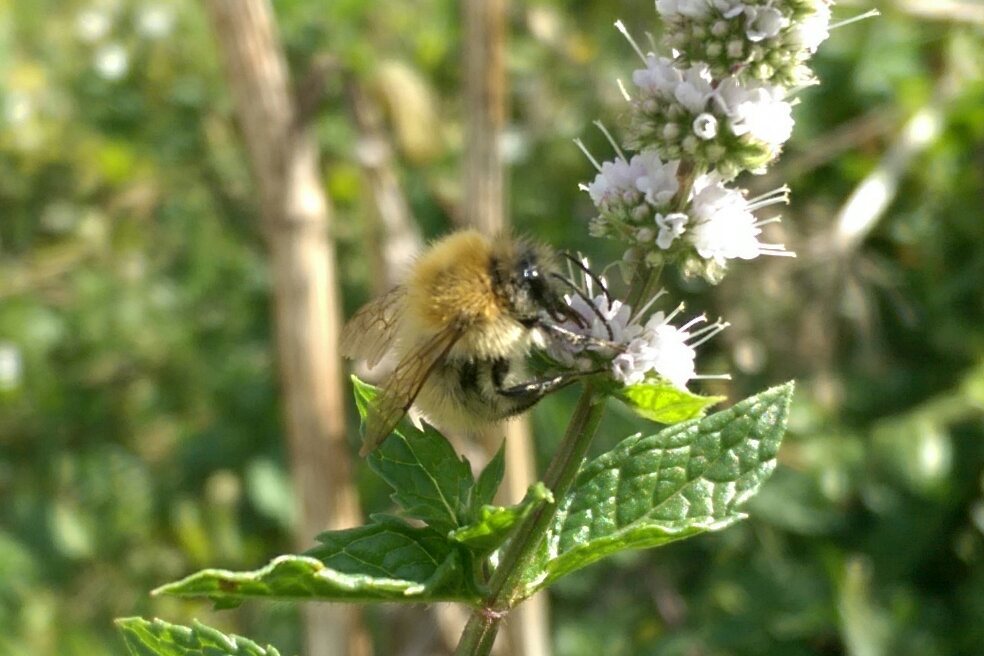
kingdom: Animalia
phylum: Arthropoda
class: Insecta
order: Hymenoptera
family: Apidae
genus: Bombus
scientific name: Bombus pascuorum
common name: Common carder bee
